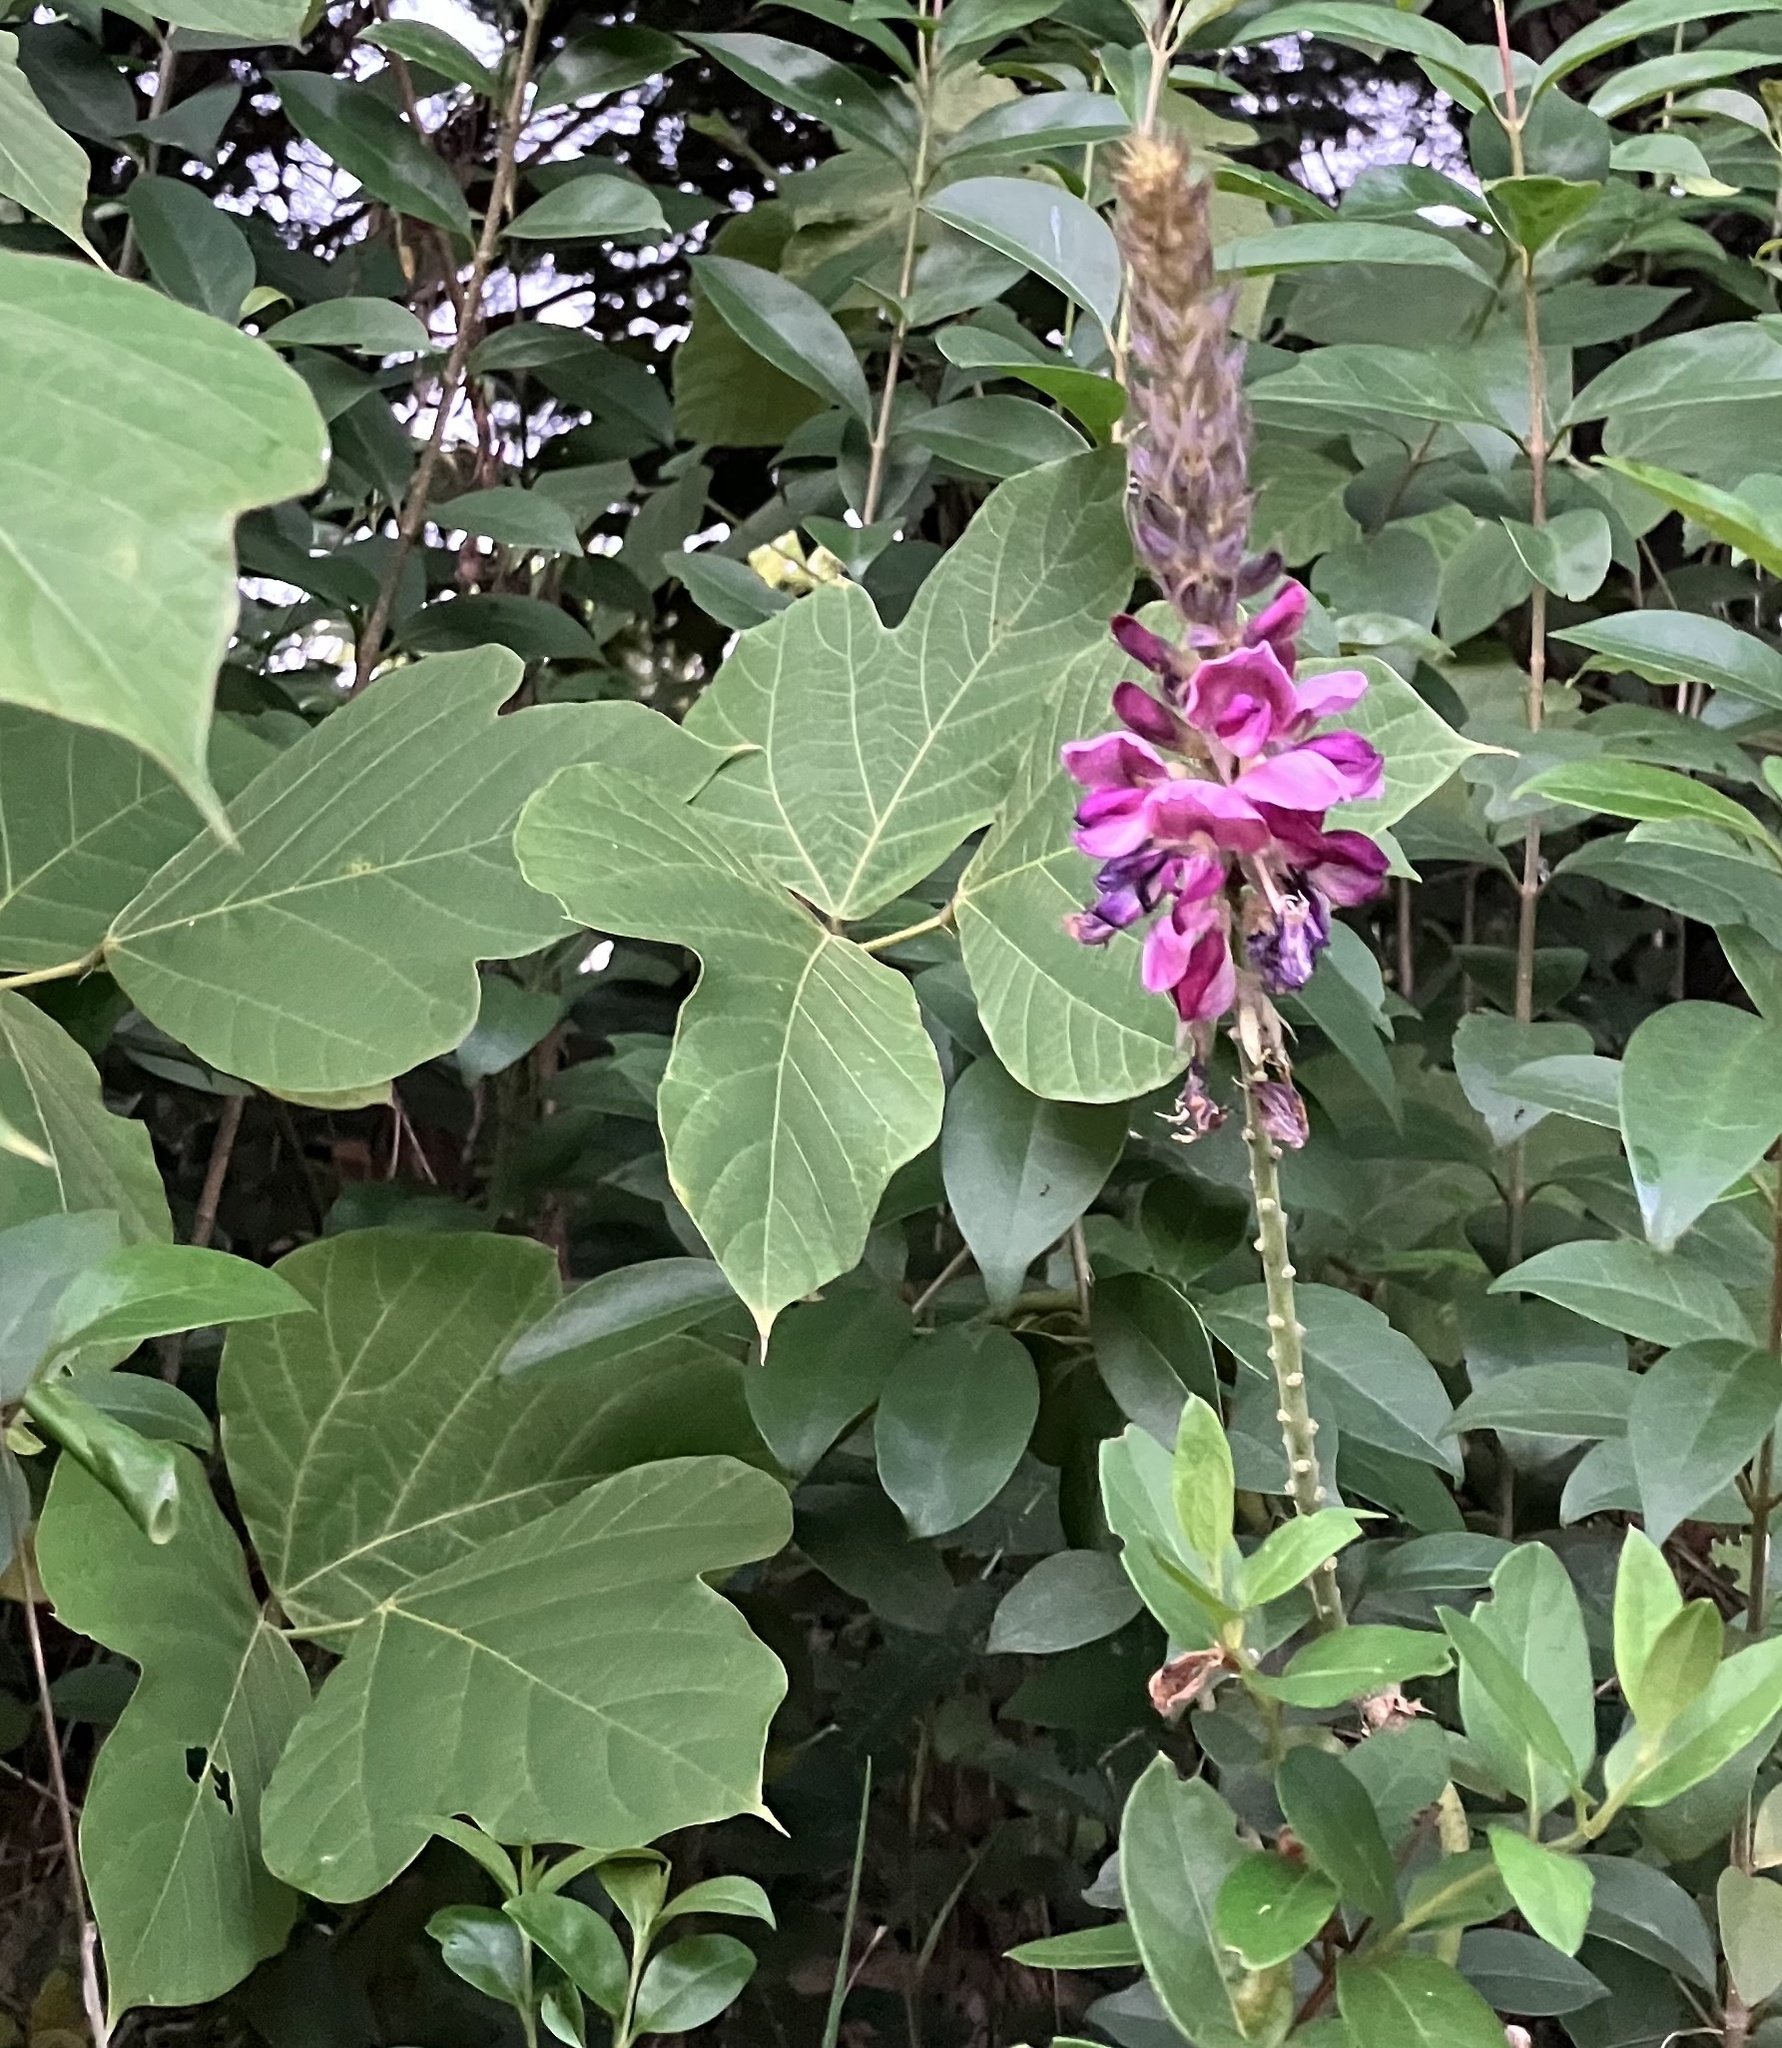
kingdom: Plantae
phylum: Tracheophyta
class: Magnoliopsida
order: Fabales
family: Fabaceae
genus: Pueraria
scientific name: Pueraria montana
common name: Kudzu
